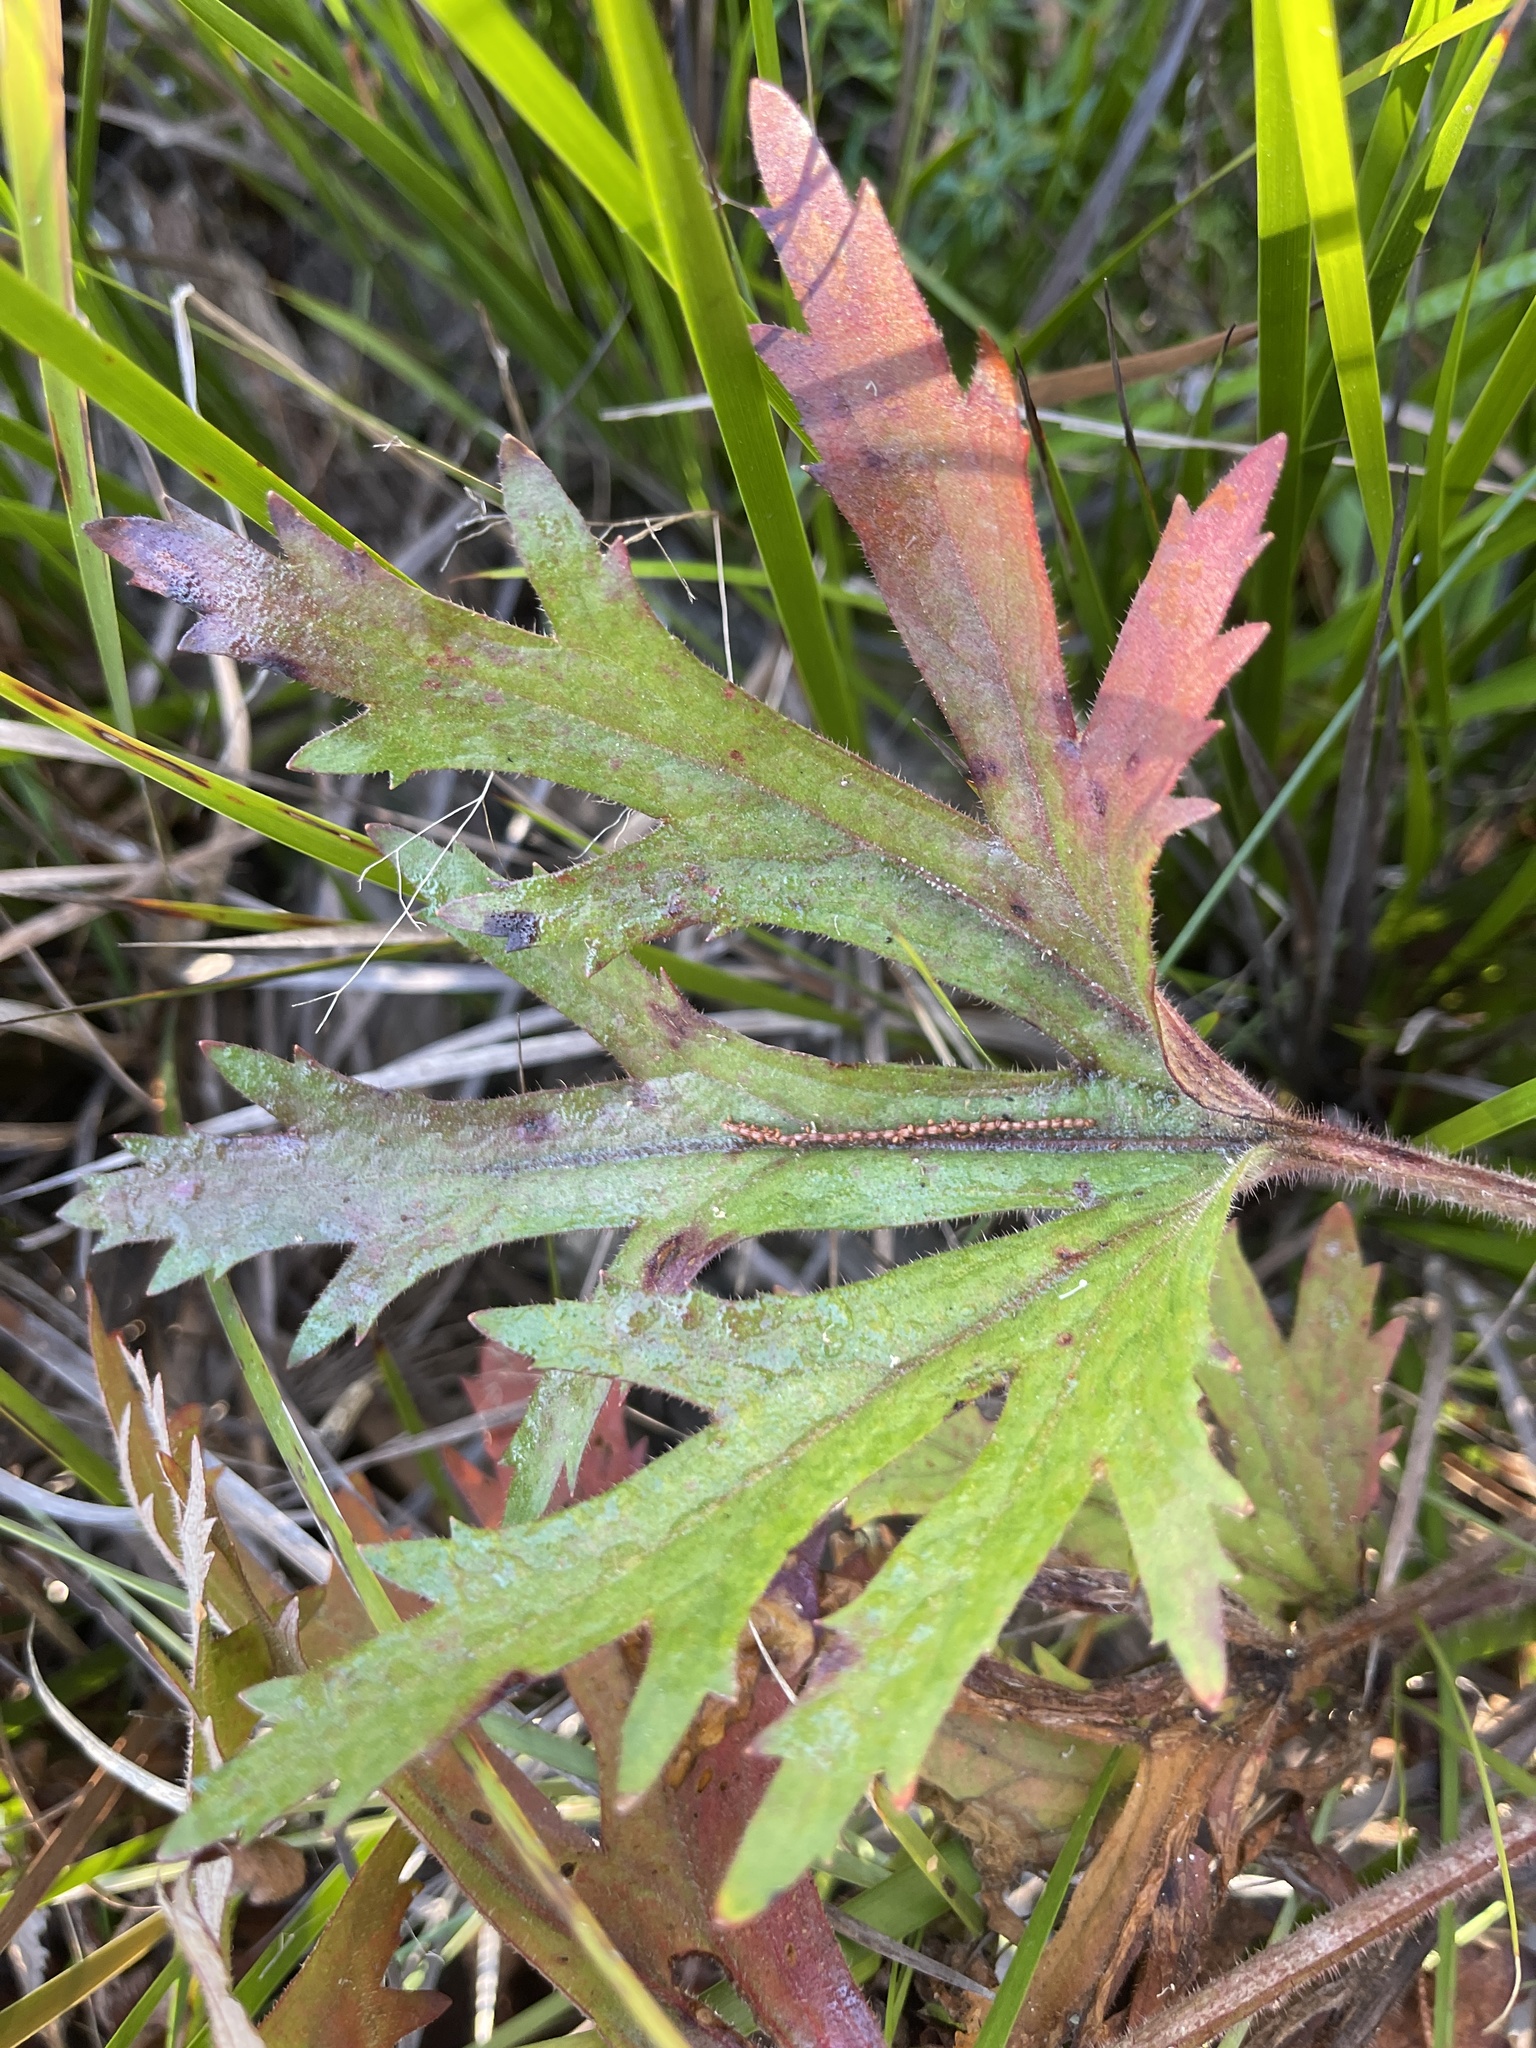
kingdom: Plantae
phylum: Tracheophyta
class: Magnoliopsida
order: Apiales
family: Araliaceae
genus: Trachymene
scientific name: Trachymene composita
